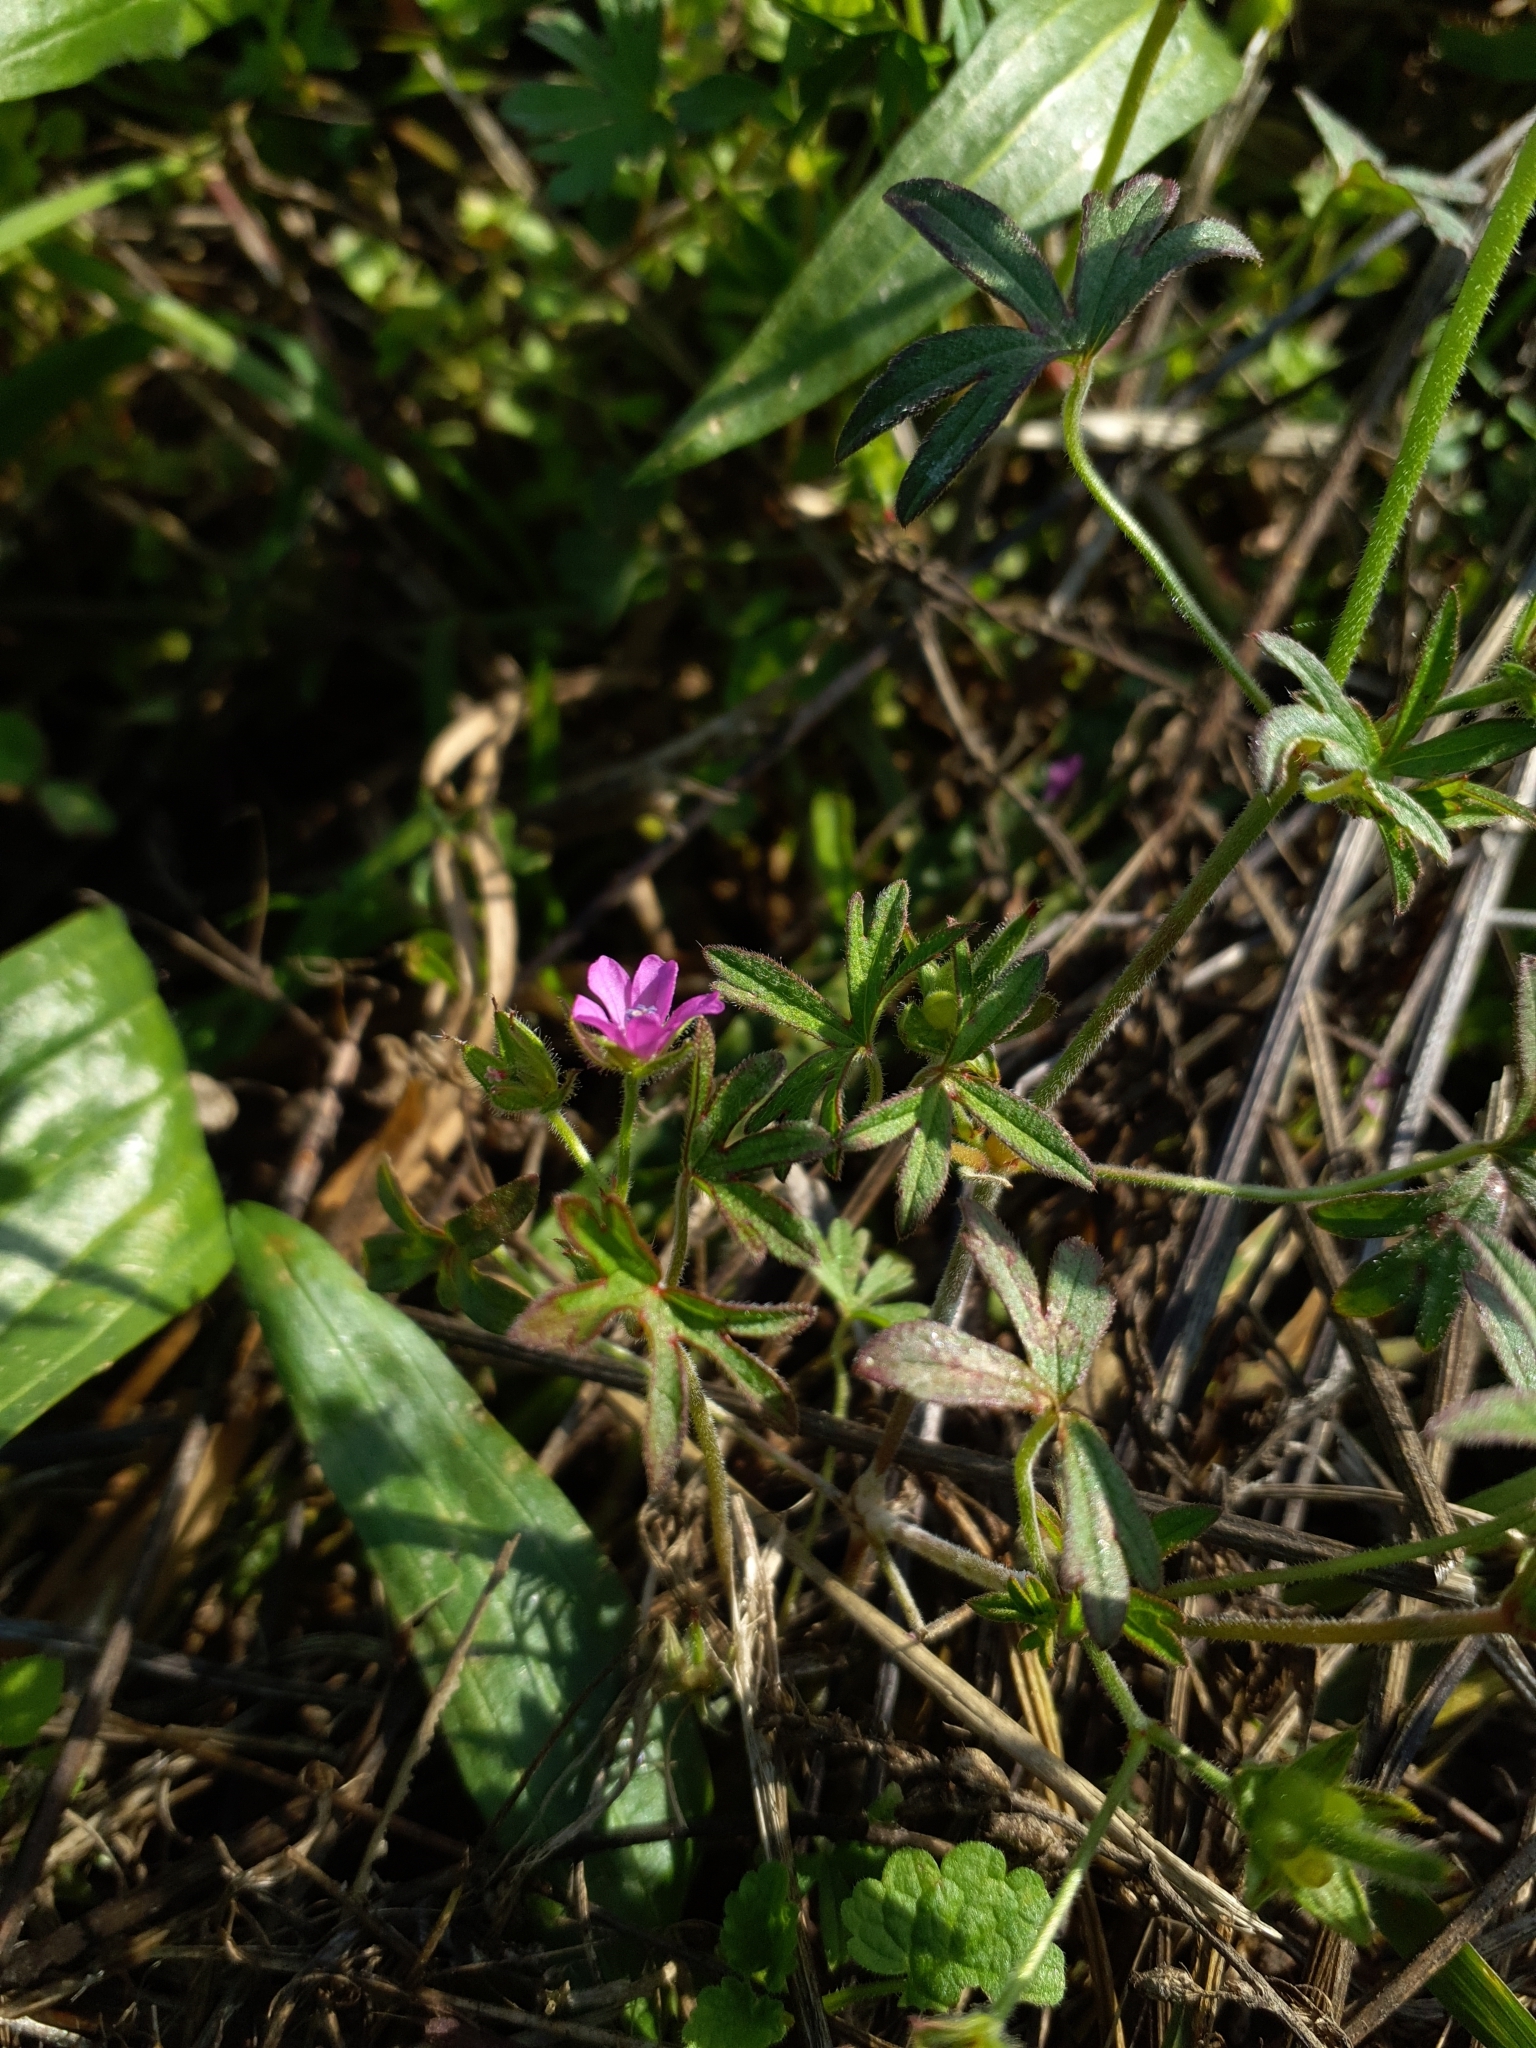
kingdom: Plantae
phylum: Tracheophyta
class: Magnoliopsida
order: Geraniales
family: Geraniaceae
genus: Geranium
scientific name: Geranium dissectum
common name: Cut-leaved crane's-bill
